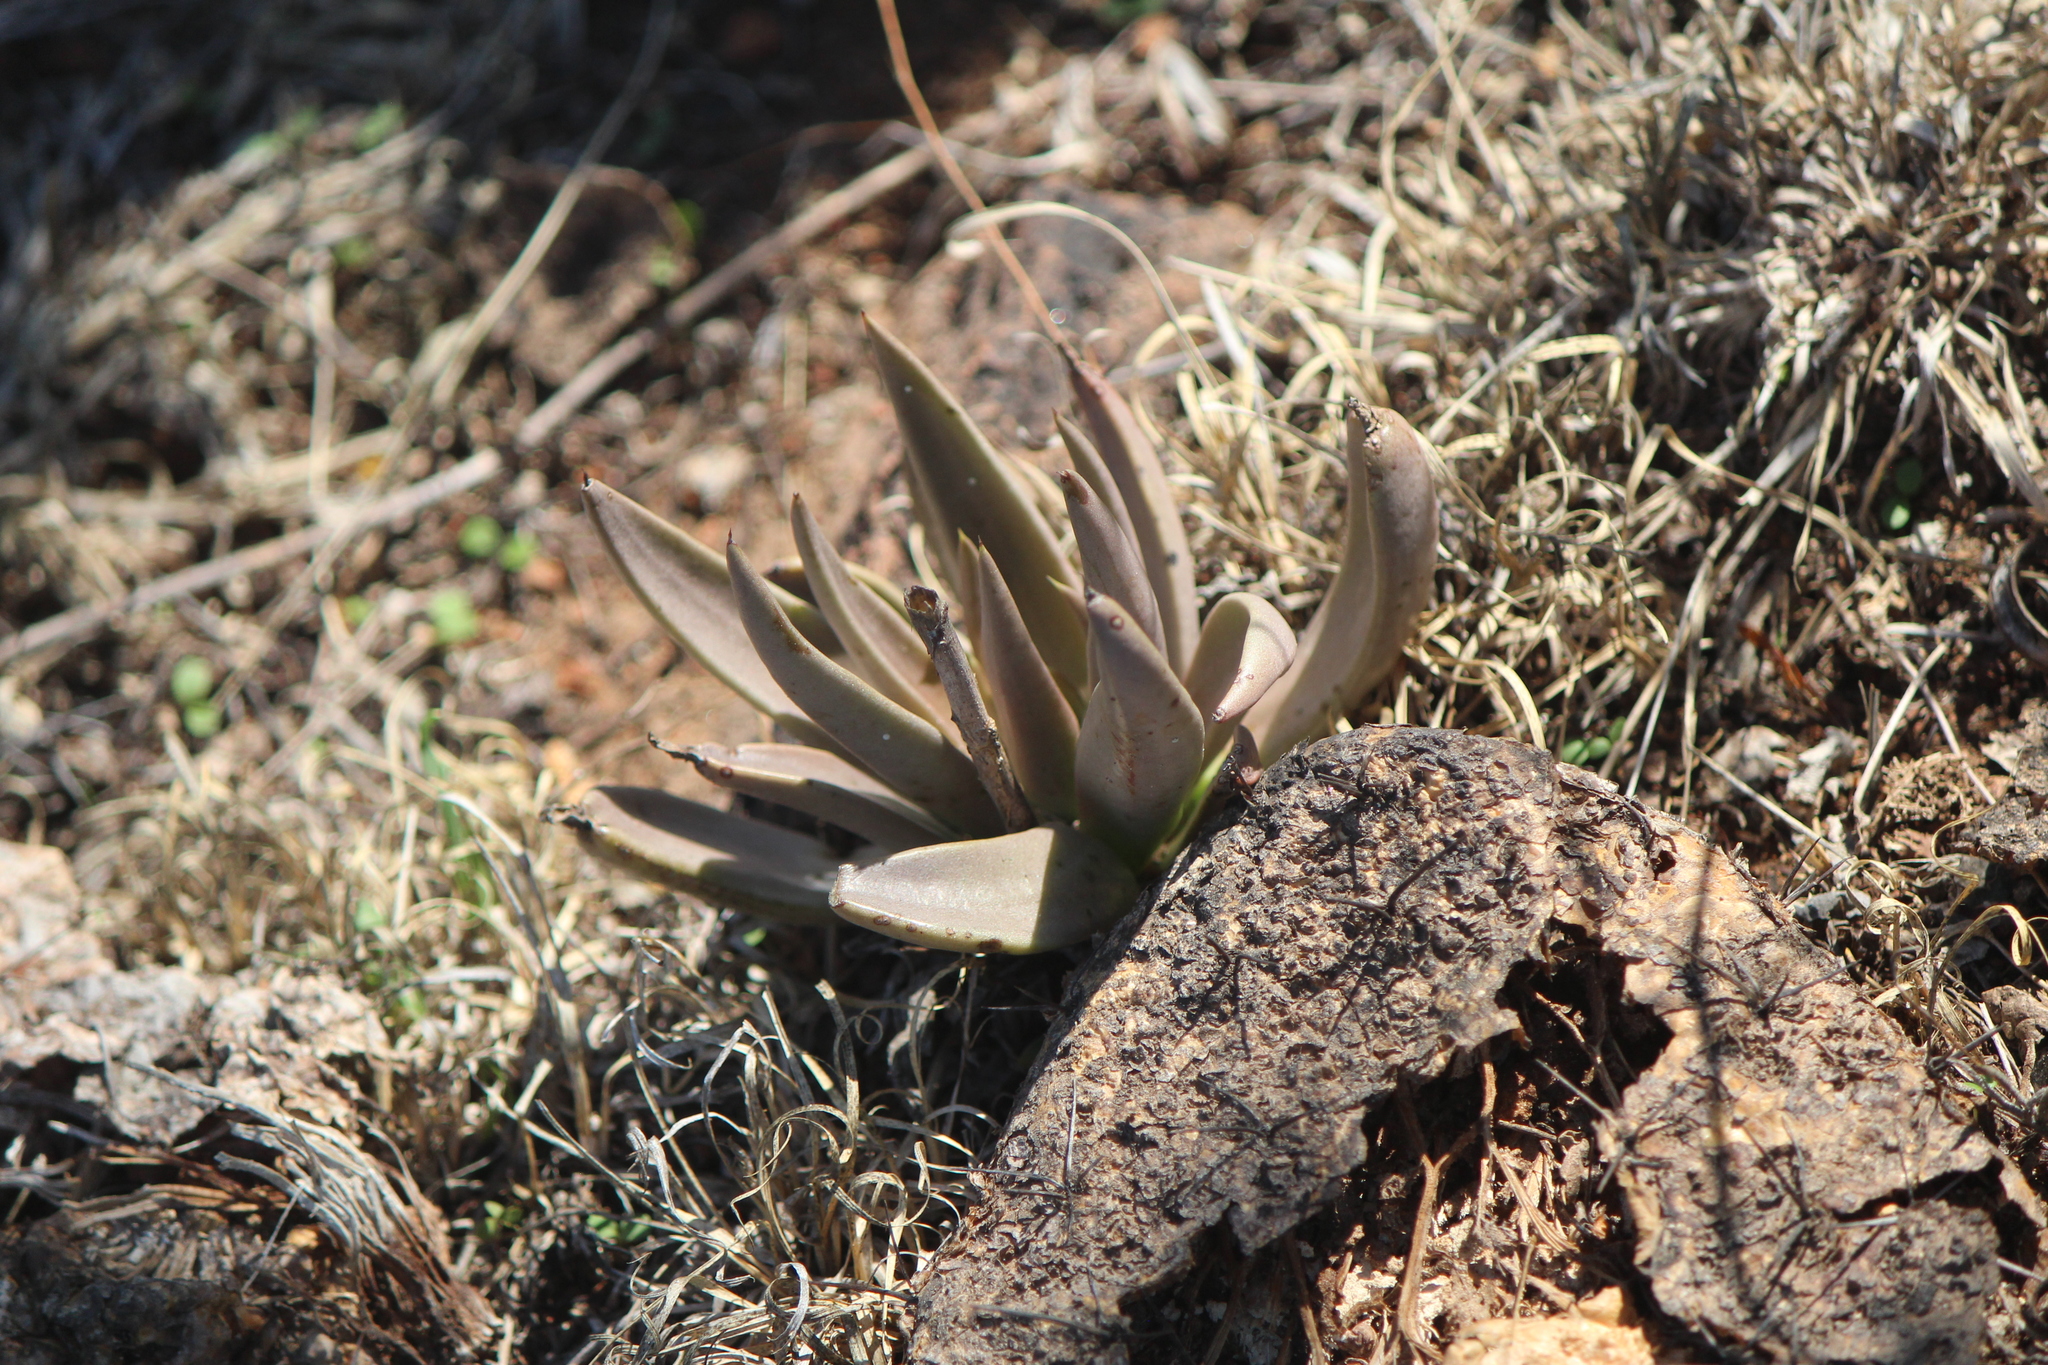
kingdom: Plantae
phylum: Tracheophyta
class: Magnoliopsida
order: Saxifragales
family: Crassulaceae
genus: Echeveria
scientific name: Echeveria bifida
